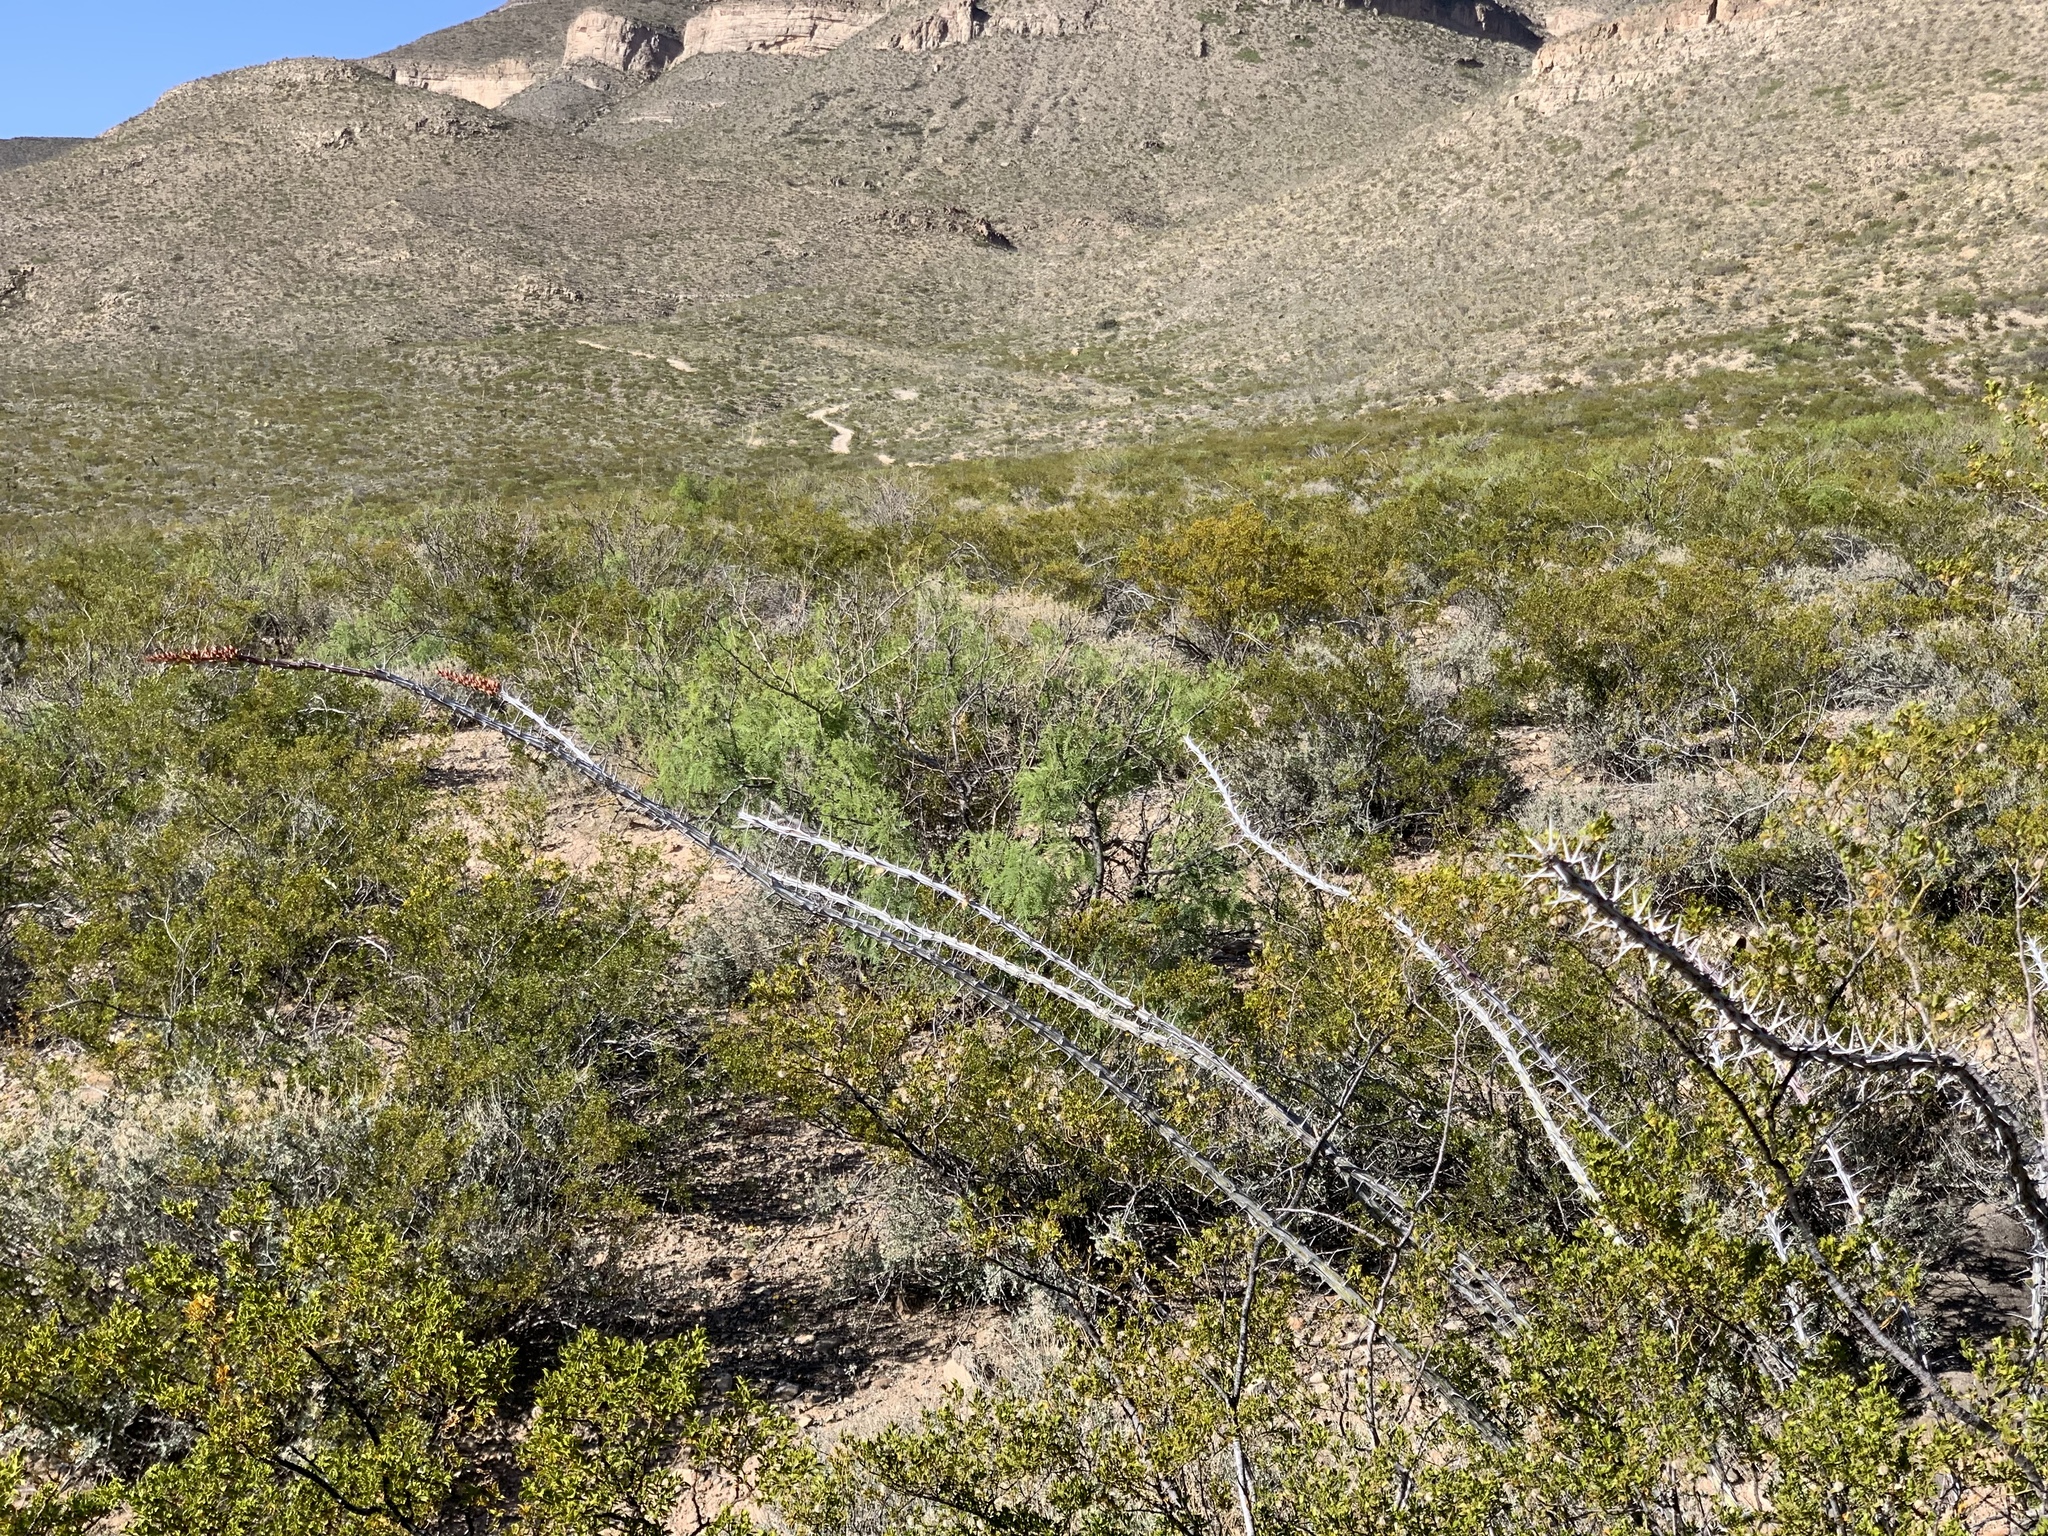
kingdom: Plantae
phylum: Tracheophyta
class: Magnoliopsida
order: Ericales
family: Fouquieriaceae
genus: Fouquieria
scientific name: Fouquieria splendens
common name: Vine-cactus
